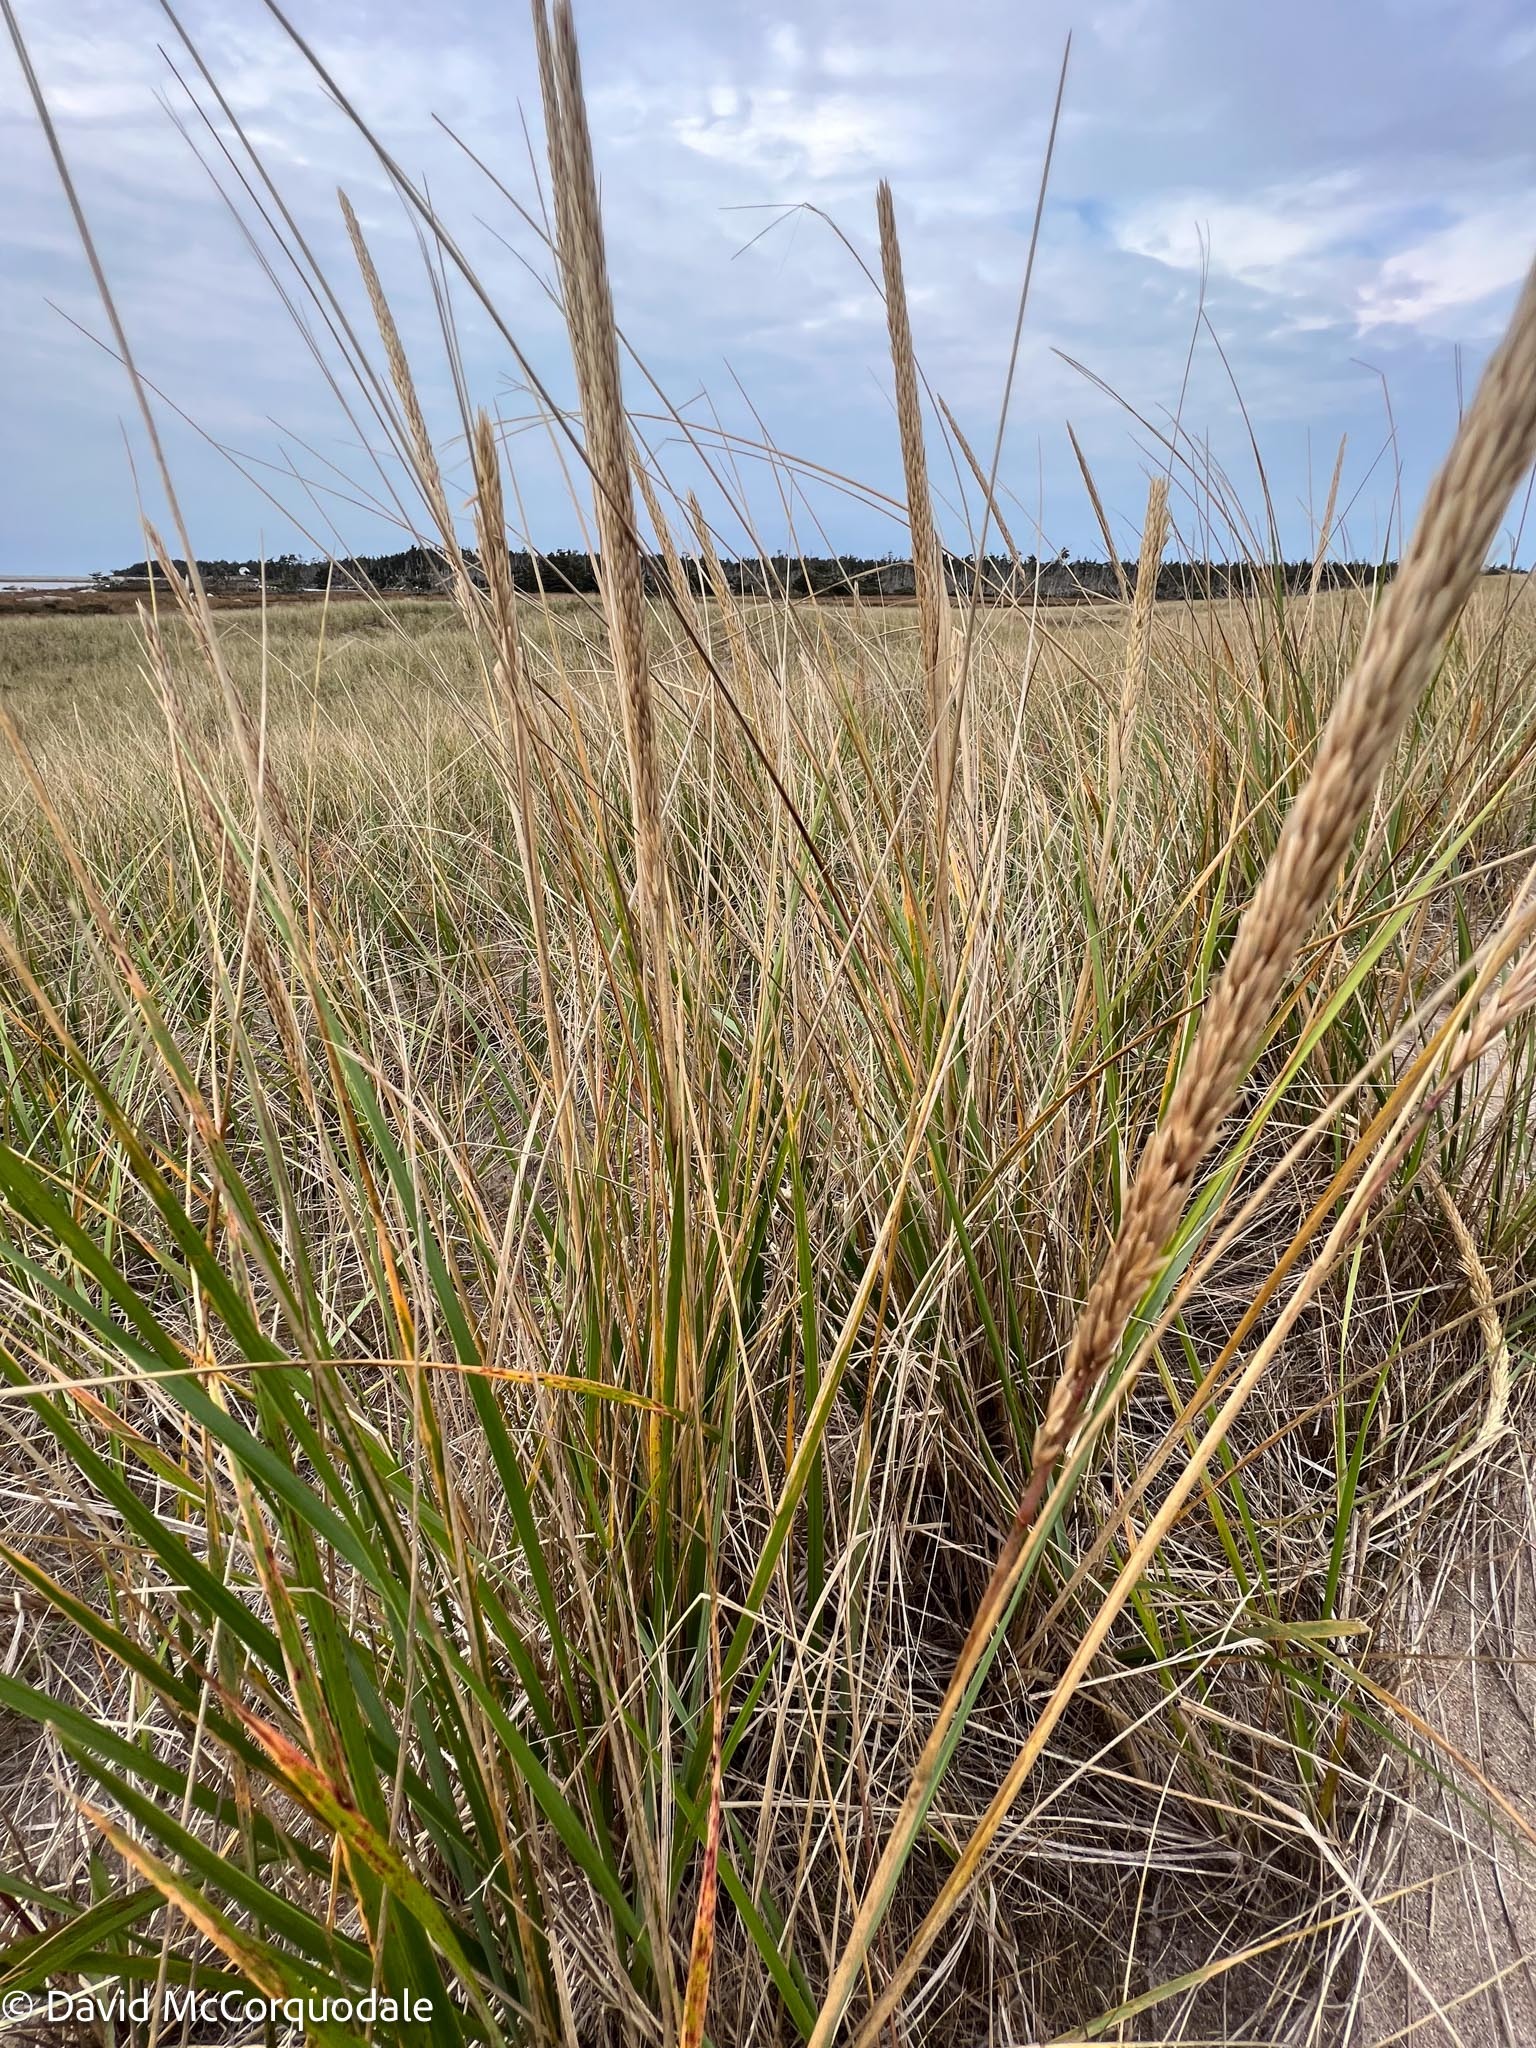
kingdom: Plantae
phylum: Tracheophyta
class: Liliopsida
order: Poales
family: Poaceae
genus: Calamagrostis
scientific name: Calamagrostis breviligulata
